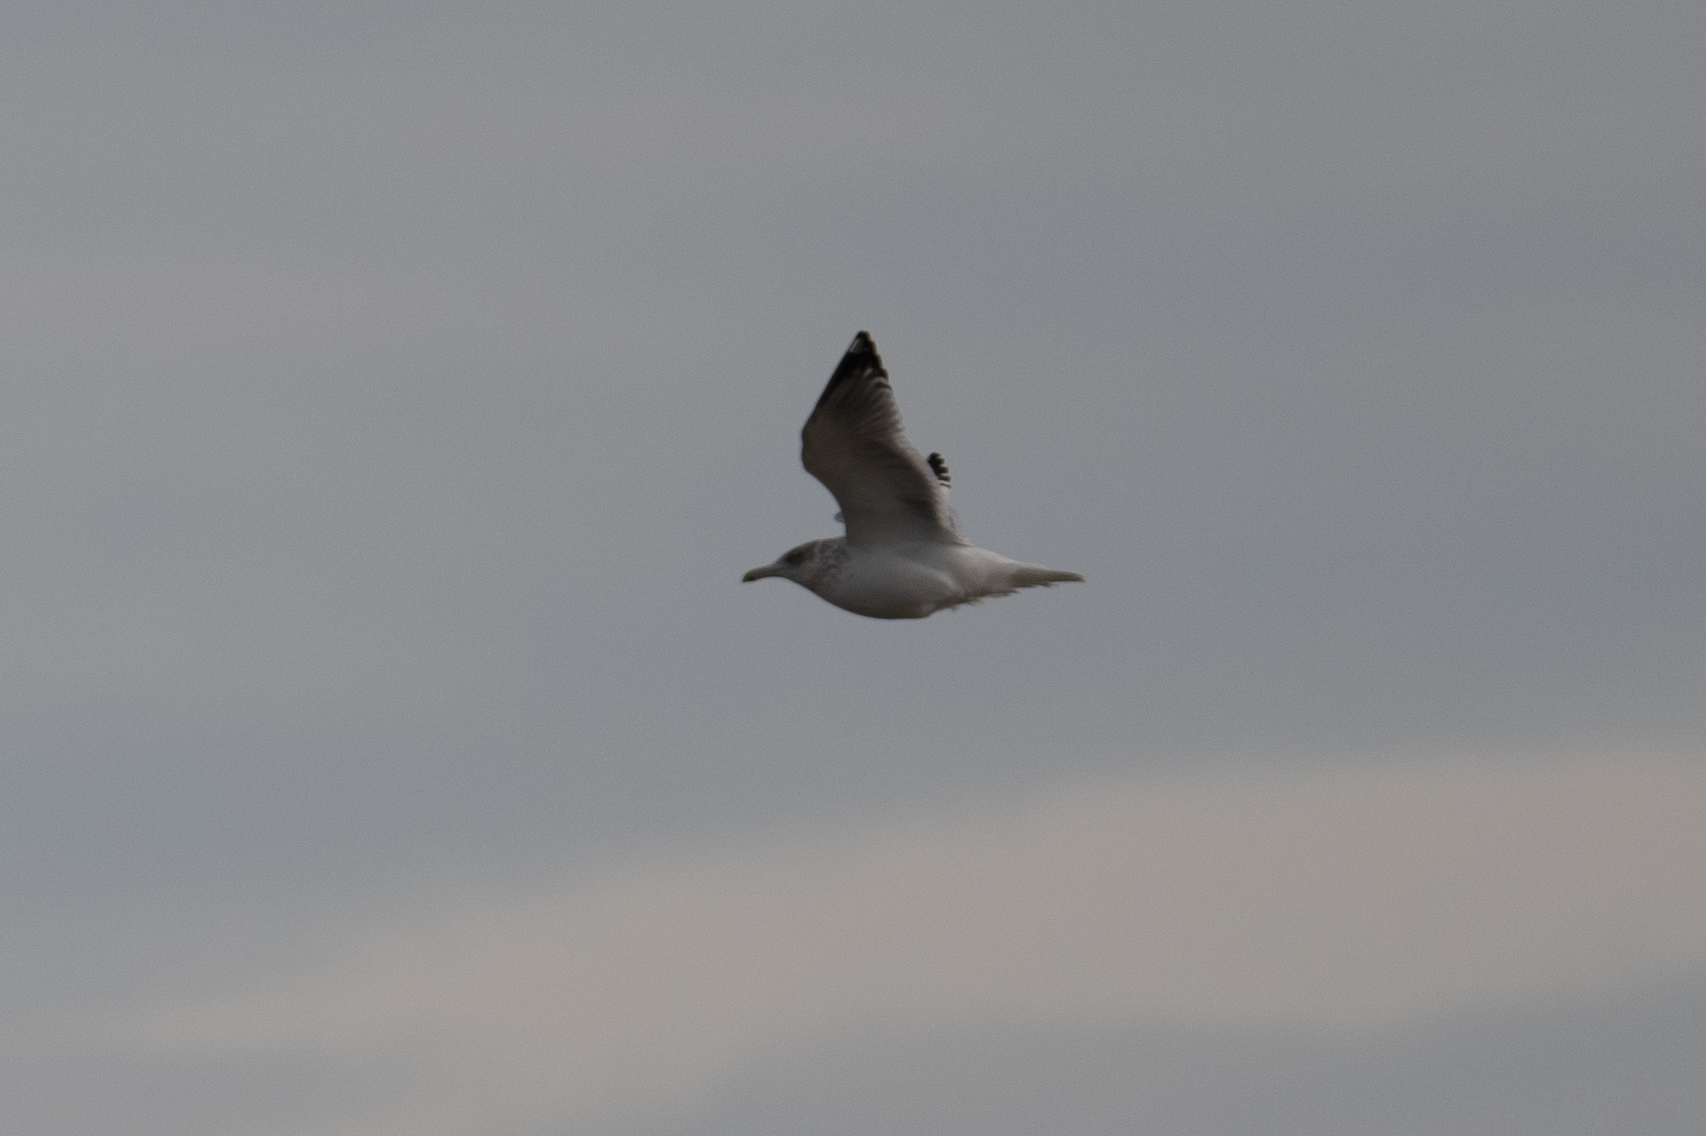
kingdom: Animalia
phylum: Chordata
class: Aves
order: Charadriiformes
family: Laridae
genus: Larus
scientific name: Larus argentatus
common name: Herring gull
